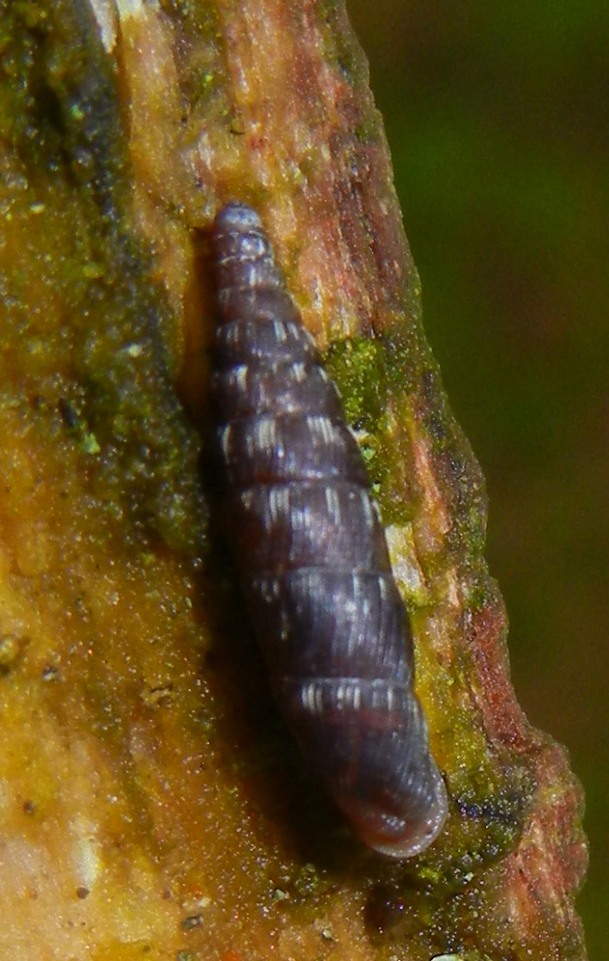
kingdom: Animalia
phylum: Mollusca
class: Gastropoda
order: Stylommatophora
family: Clausiliidae
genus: Clausilia
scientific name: Clausilia bidentata
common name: Two-toothed door snail
